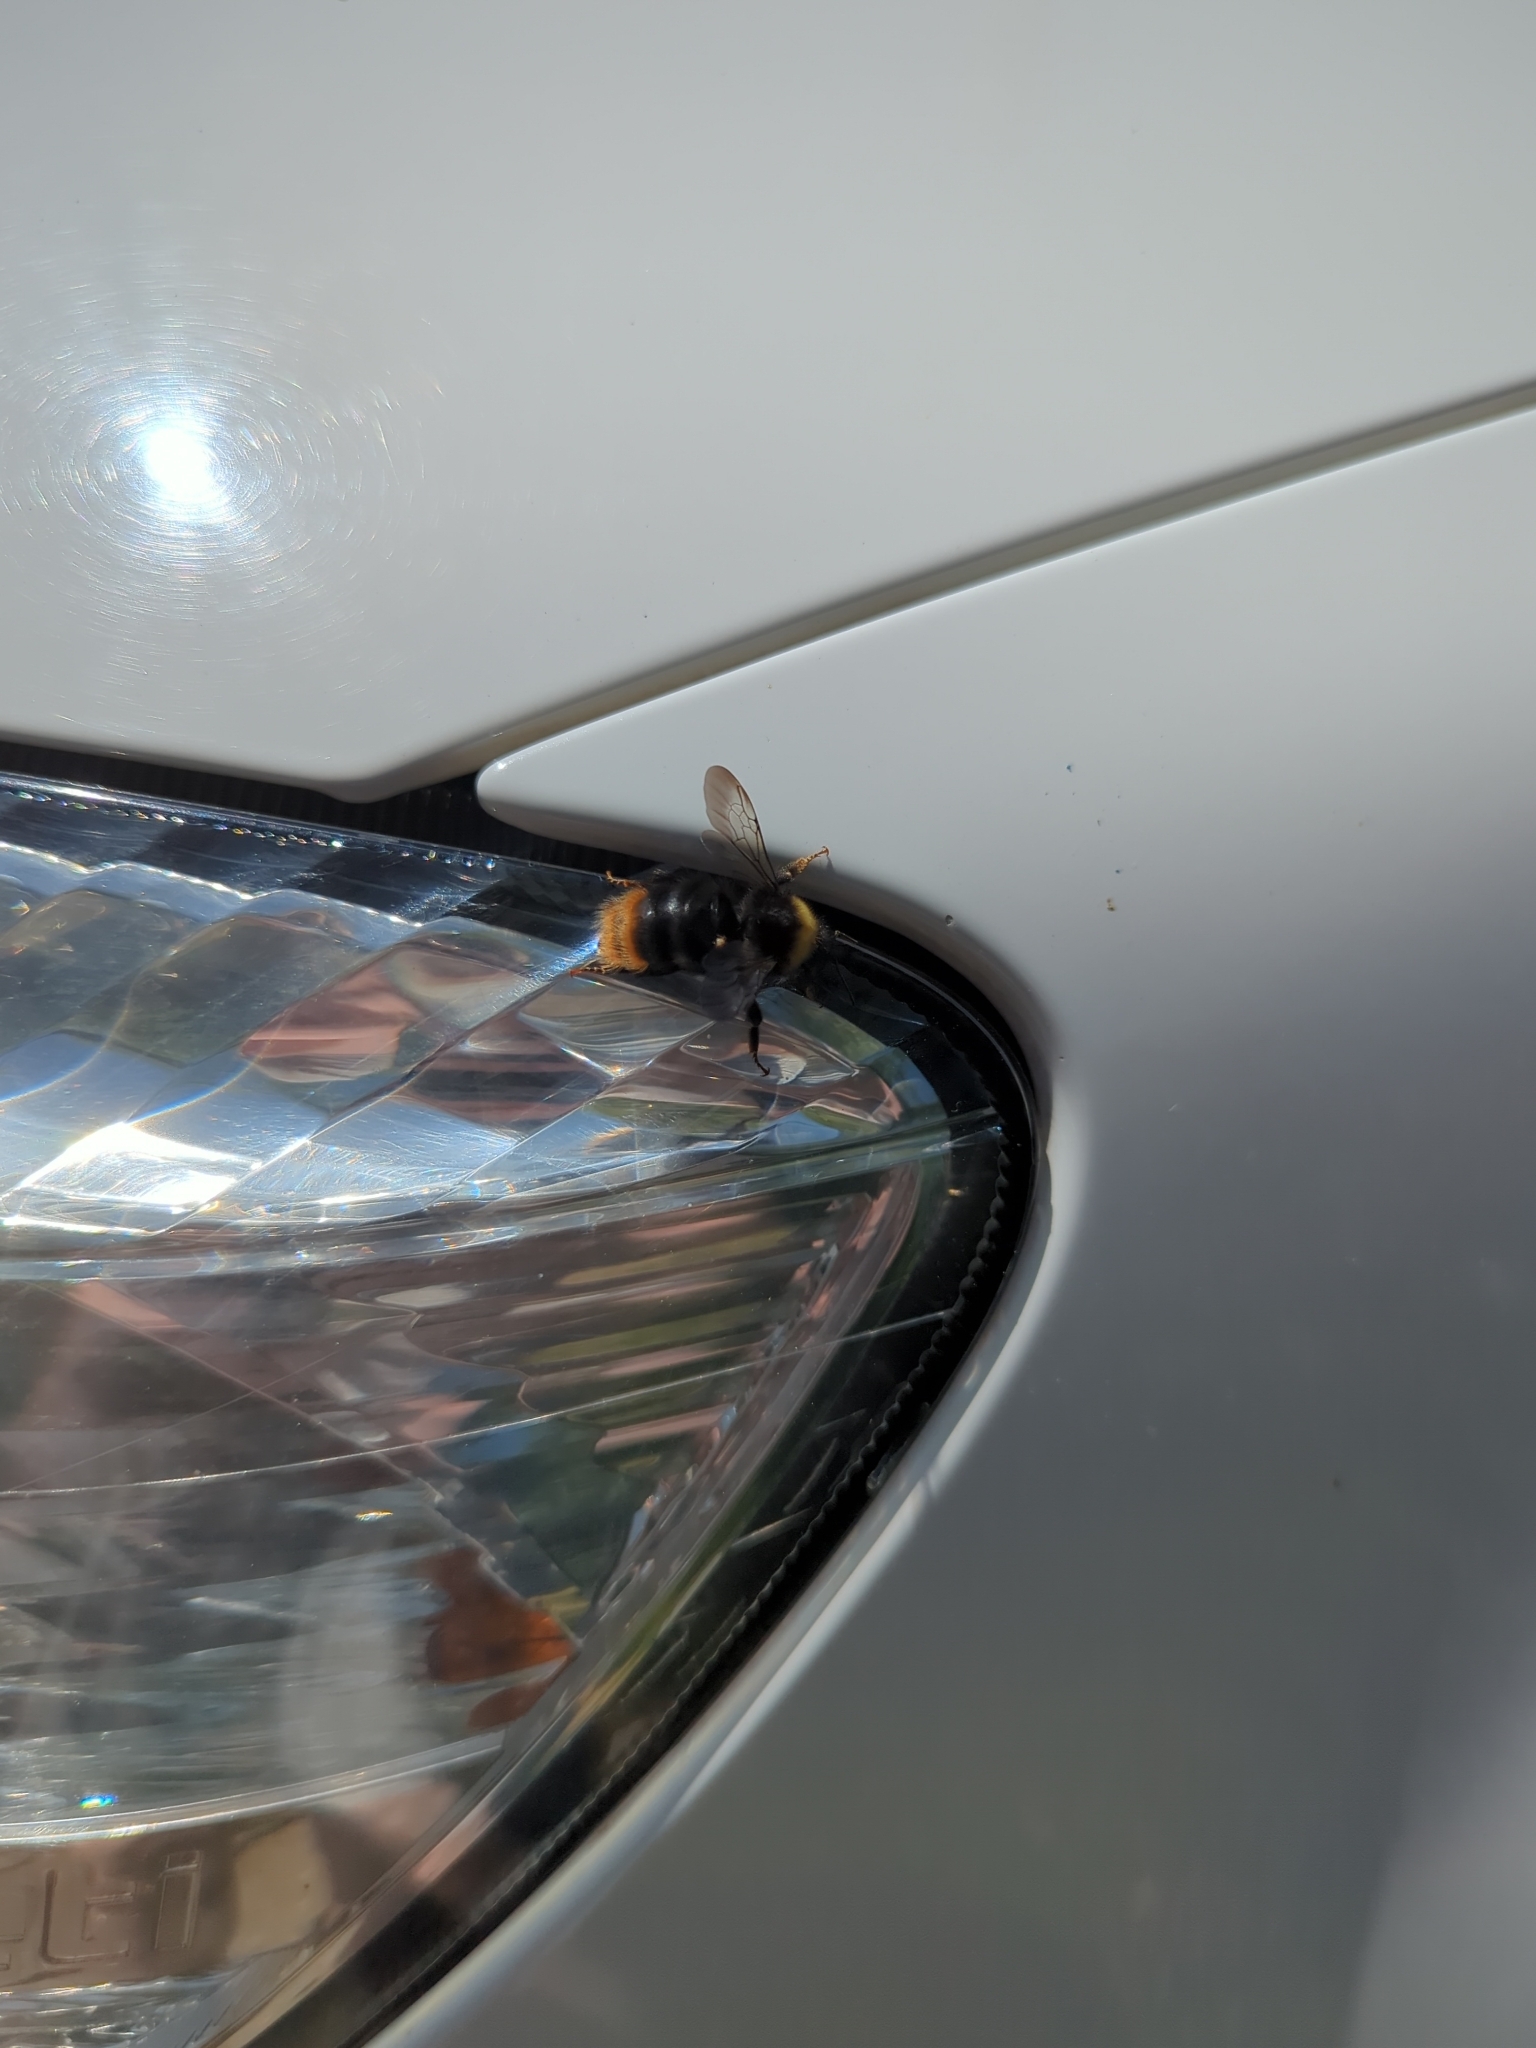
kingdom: Animalia
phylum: Arthropoda
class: Insecta
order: Hymenoptera
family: Apidae
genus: Bombus
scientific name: Bombus pratorum
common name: Early humble-bee
